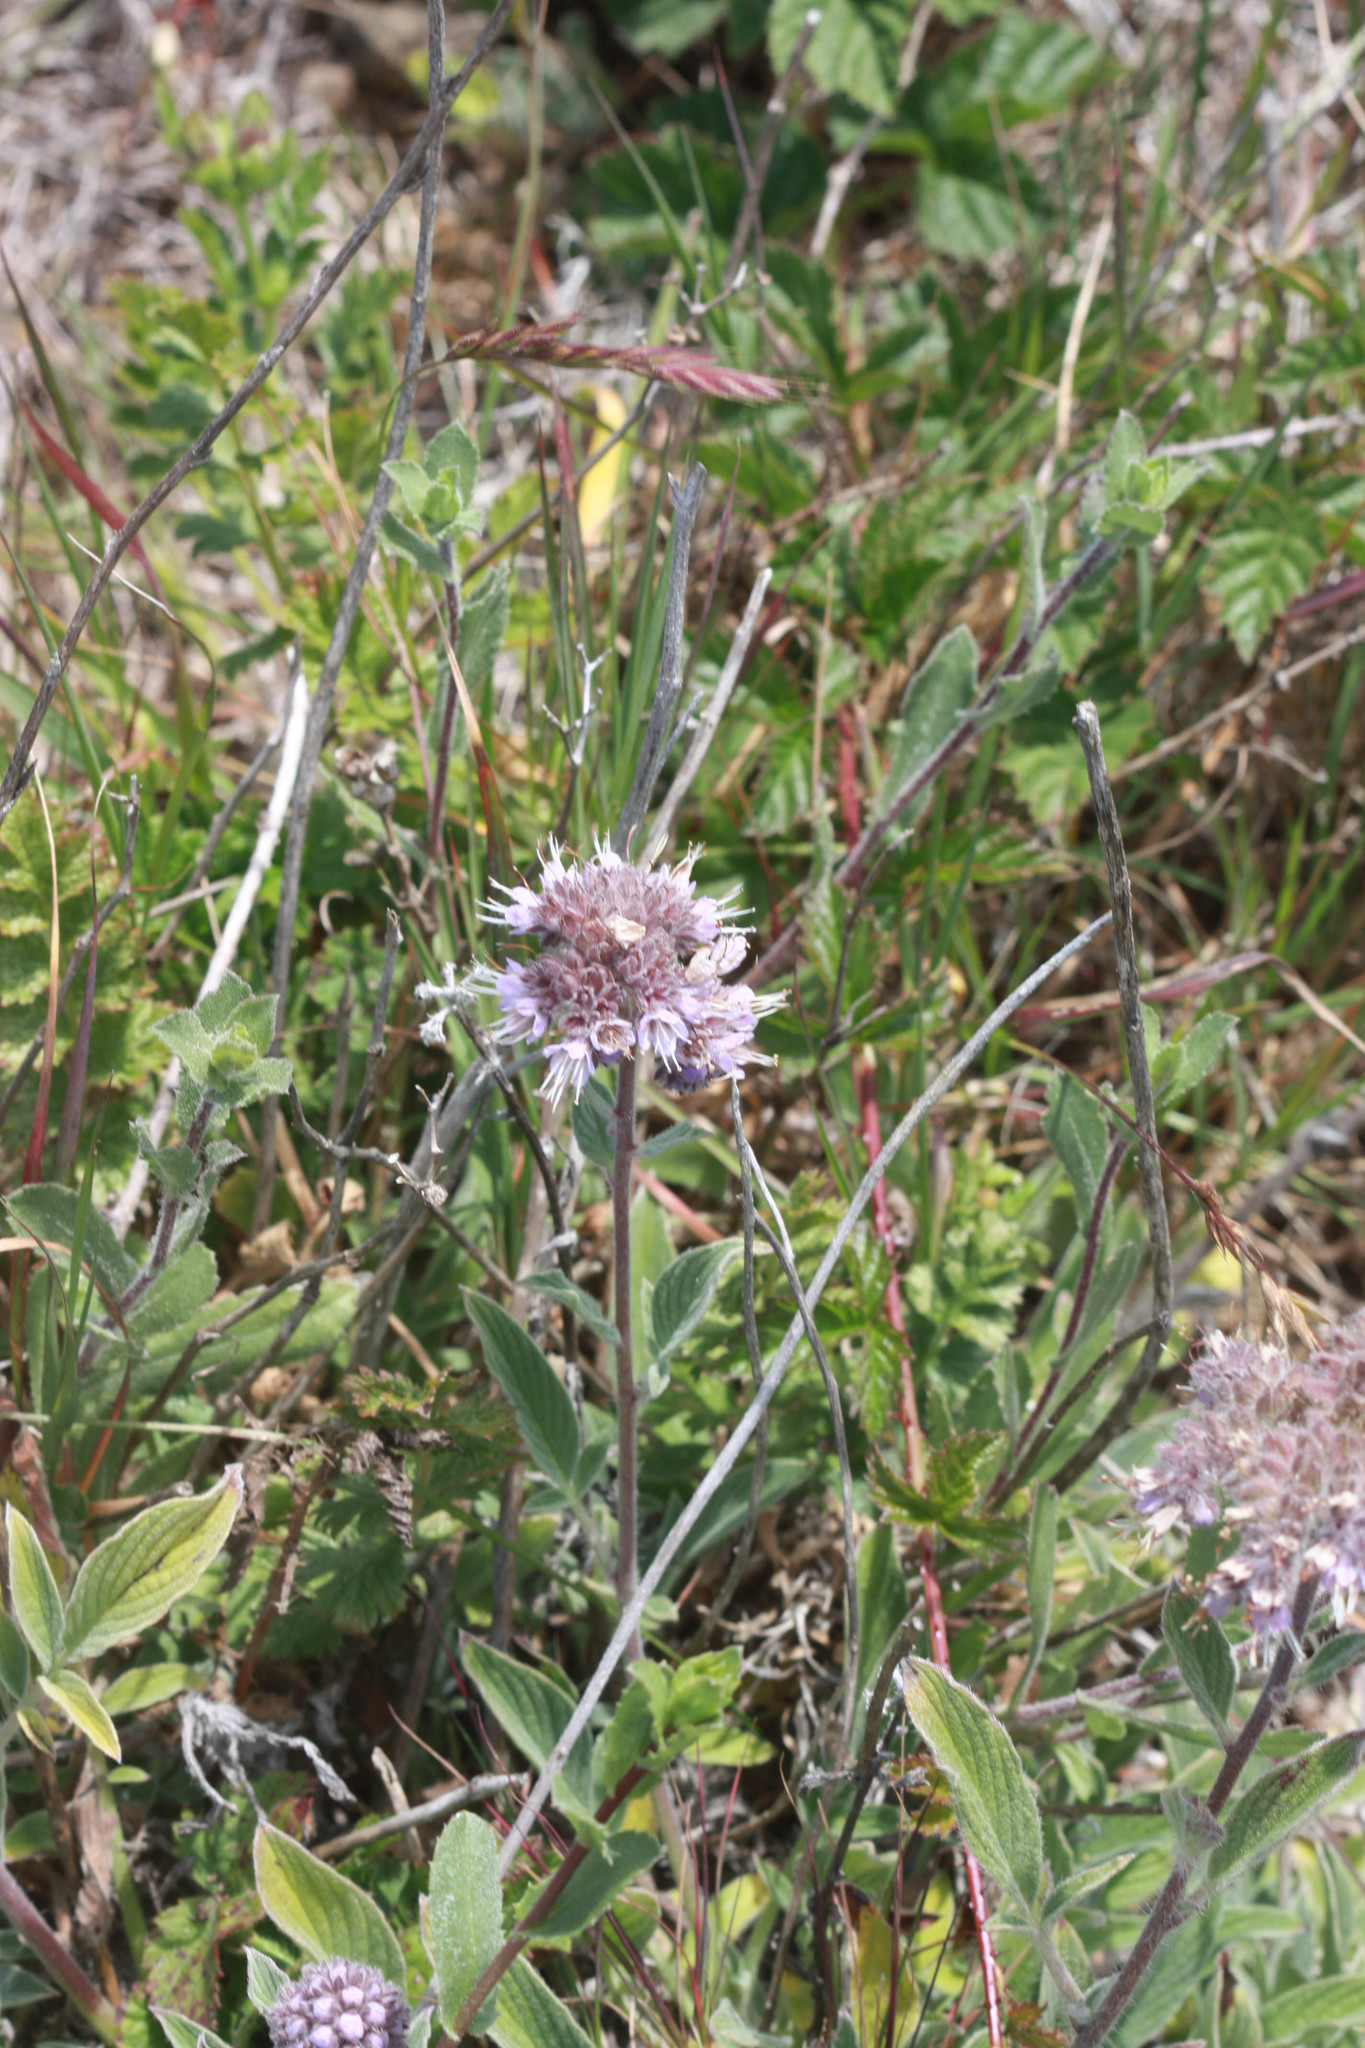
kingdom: Plantae
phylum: Tracheophyta
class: Magnoliopsida
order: Boraginales
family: Hydrophyllaceae
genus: Phacelia
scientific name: Phacelia californica
